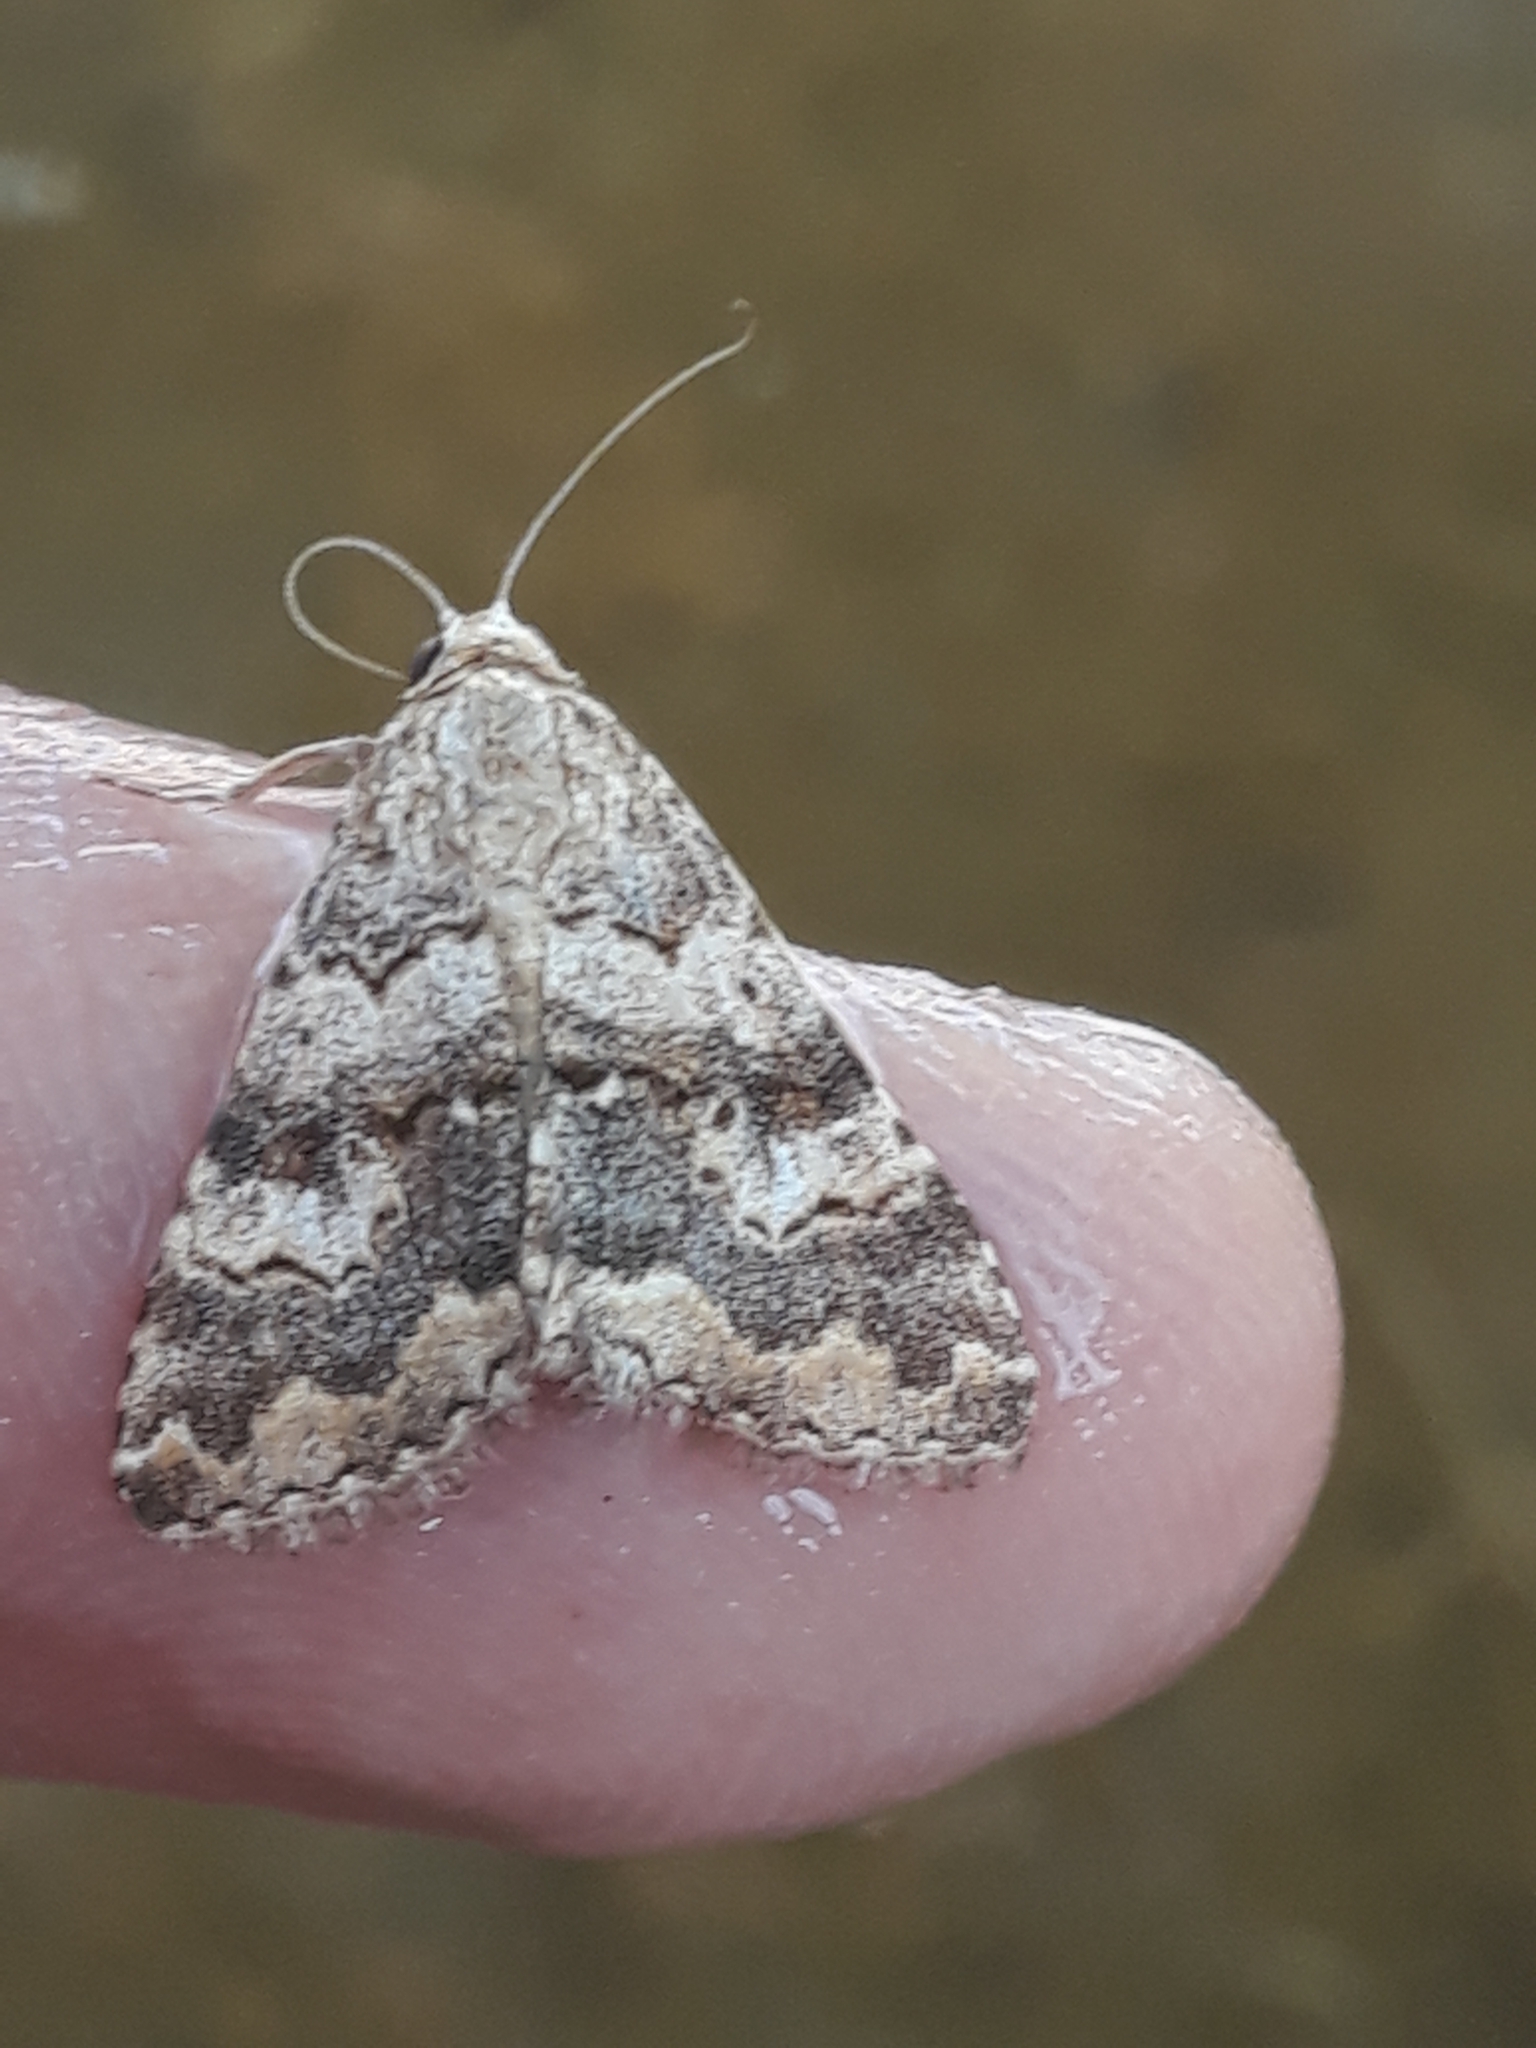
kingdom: Animalia
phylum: Arthropoda
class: Insecta
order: Lepidoptera
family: Erebidae
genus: Gnamptonyx
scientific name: Gnamptonyx innexa
